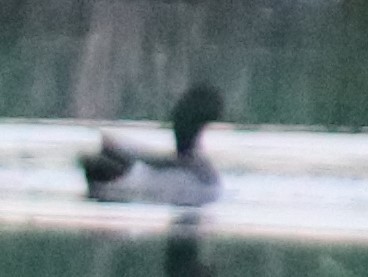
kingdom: Animalia
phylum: Chordata
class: Aves
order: Anseriformes
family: Anatidae
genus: Anas
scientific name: Anas platyrhynchos
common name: Mallard
